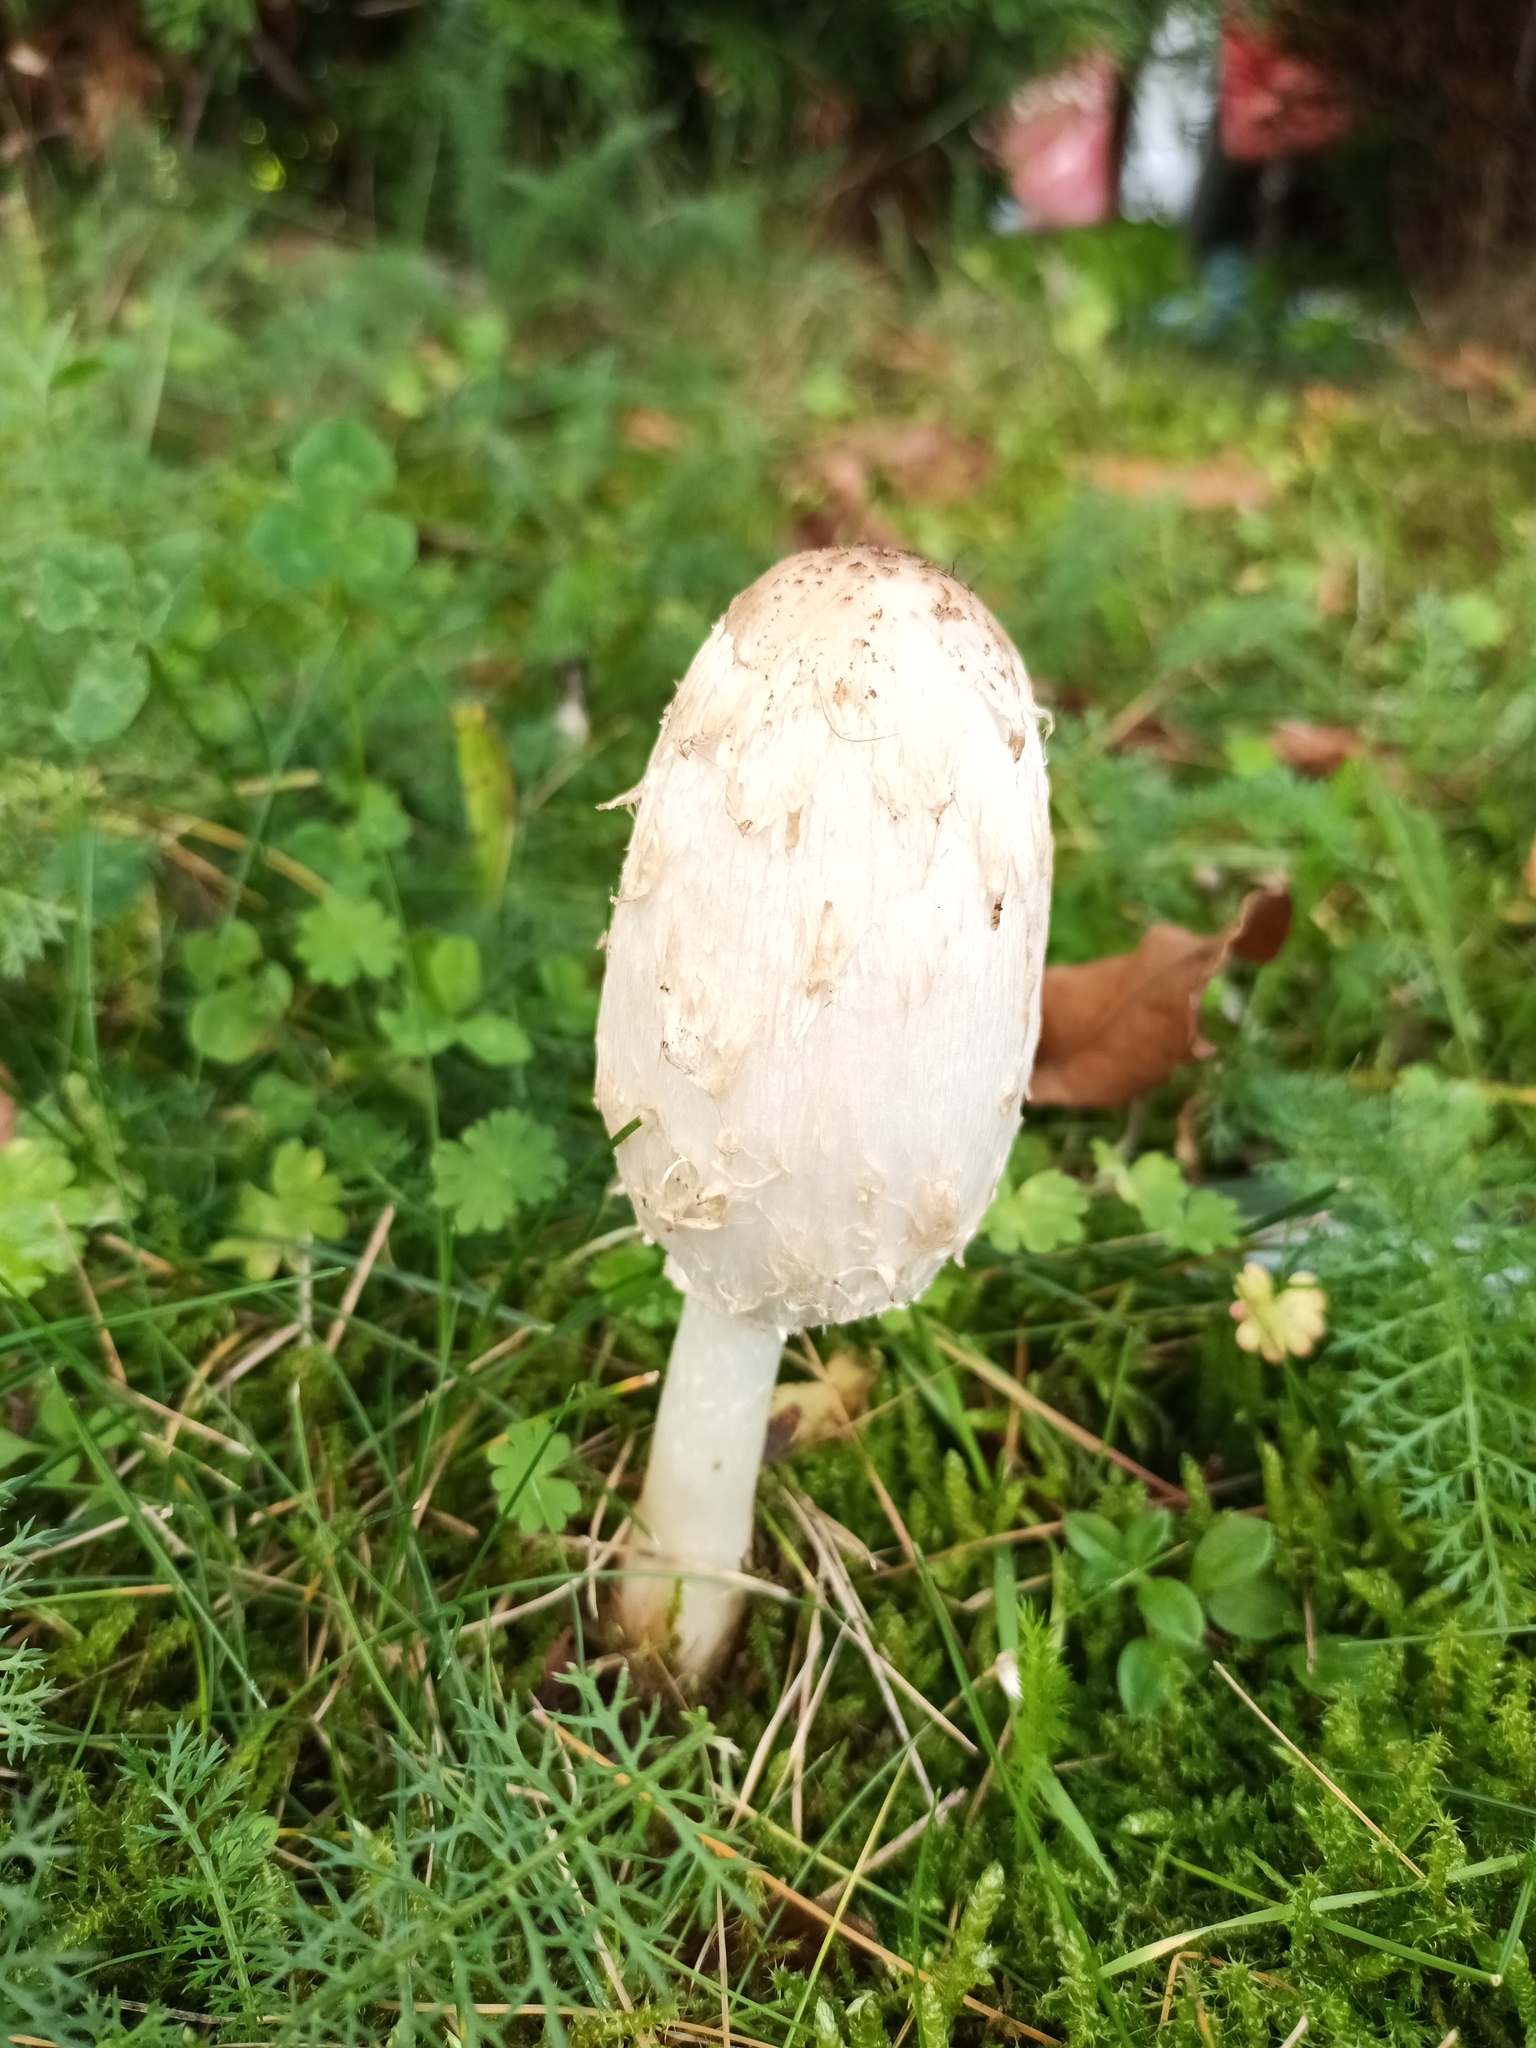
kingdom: Fungi
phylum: Basidiomycota
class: Agaricomycetes
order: Agaricales
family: Agaricaceae
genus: Coprinus
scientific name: Coprinus comatus
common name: Lawyer's wig
